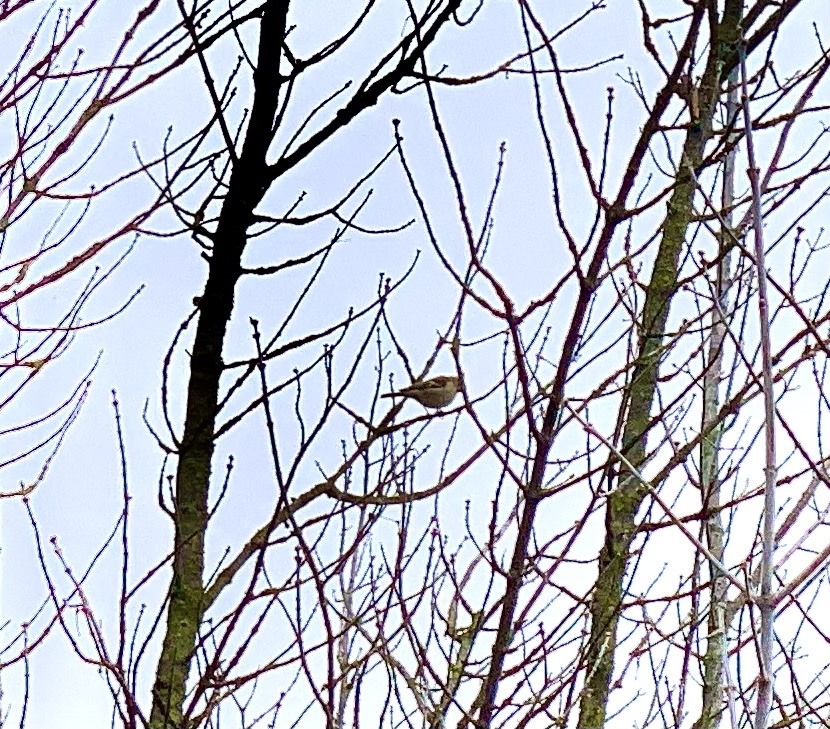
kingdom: Animalia
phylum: Chordata
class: Aves
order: Passeriformes
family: Fringillidae
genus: Fringilla
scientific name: Fringilla coelebs
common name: Common chaffinch
